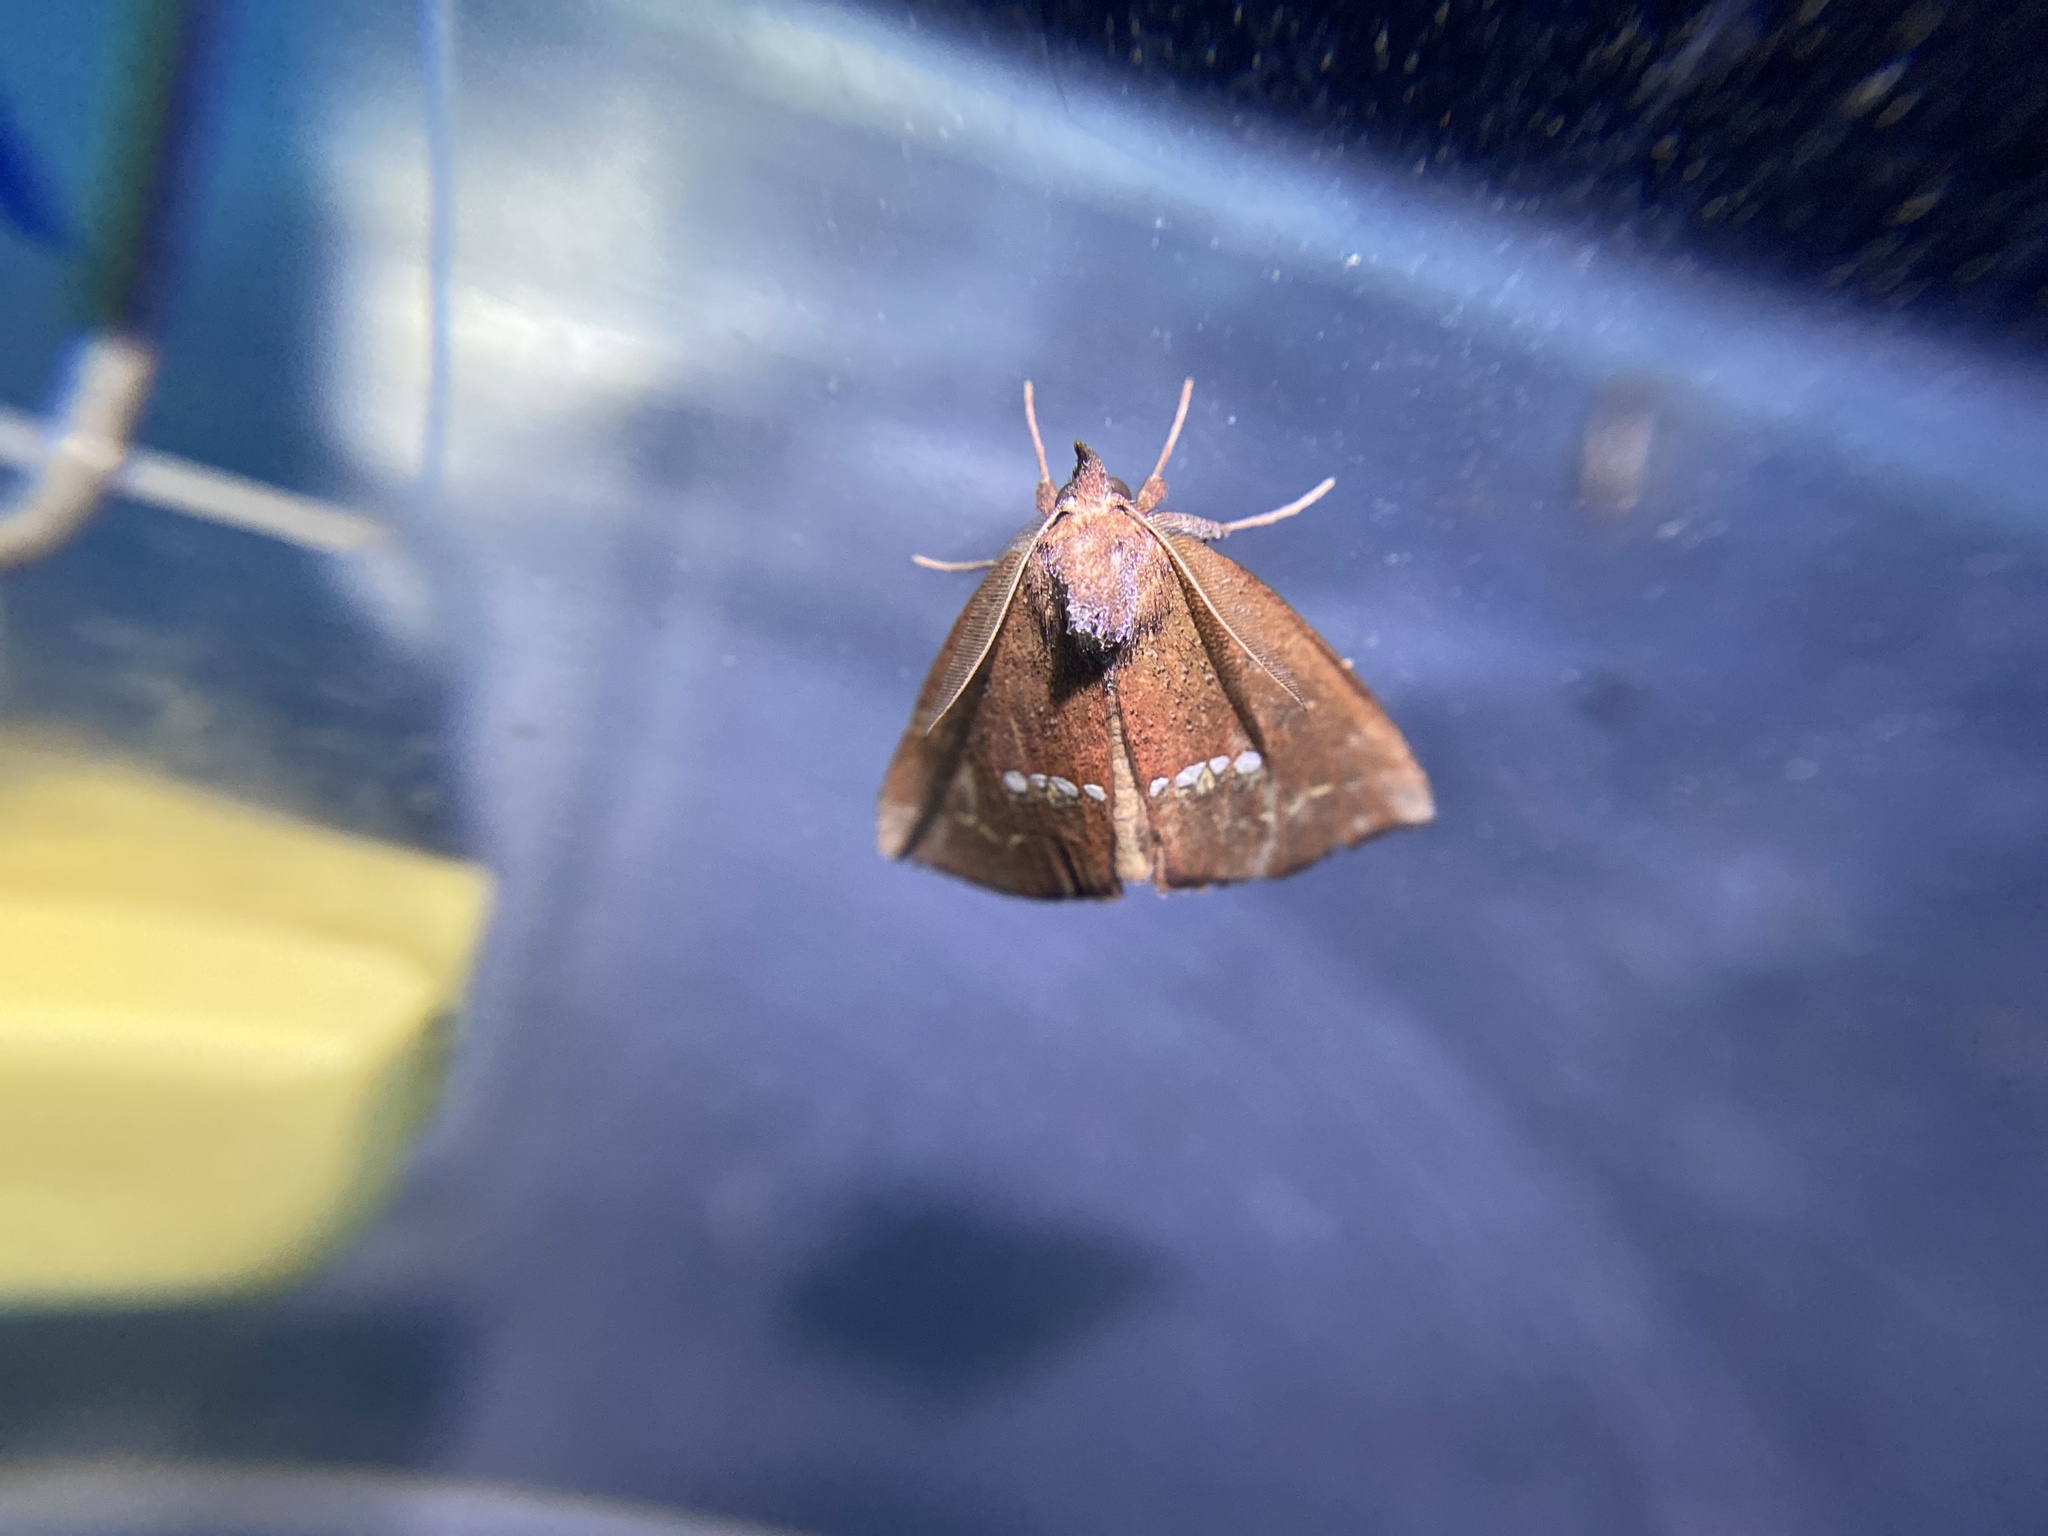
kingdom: Animalia
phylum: Arthropoda
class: Insecta
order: Lepidoptera
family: Erebidae
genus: Hypsoropha
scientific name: Hypsoropha monilis
